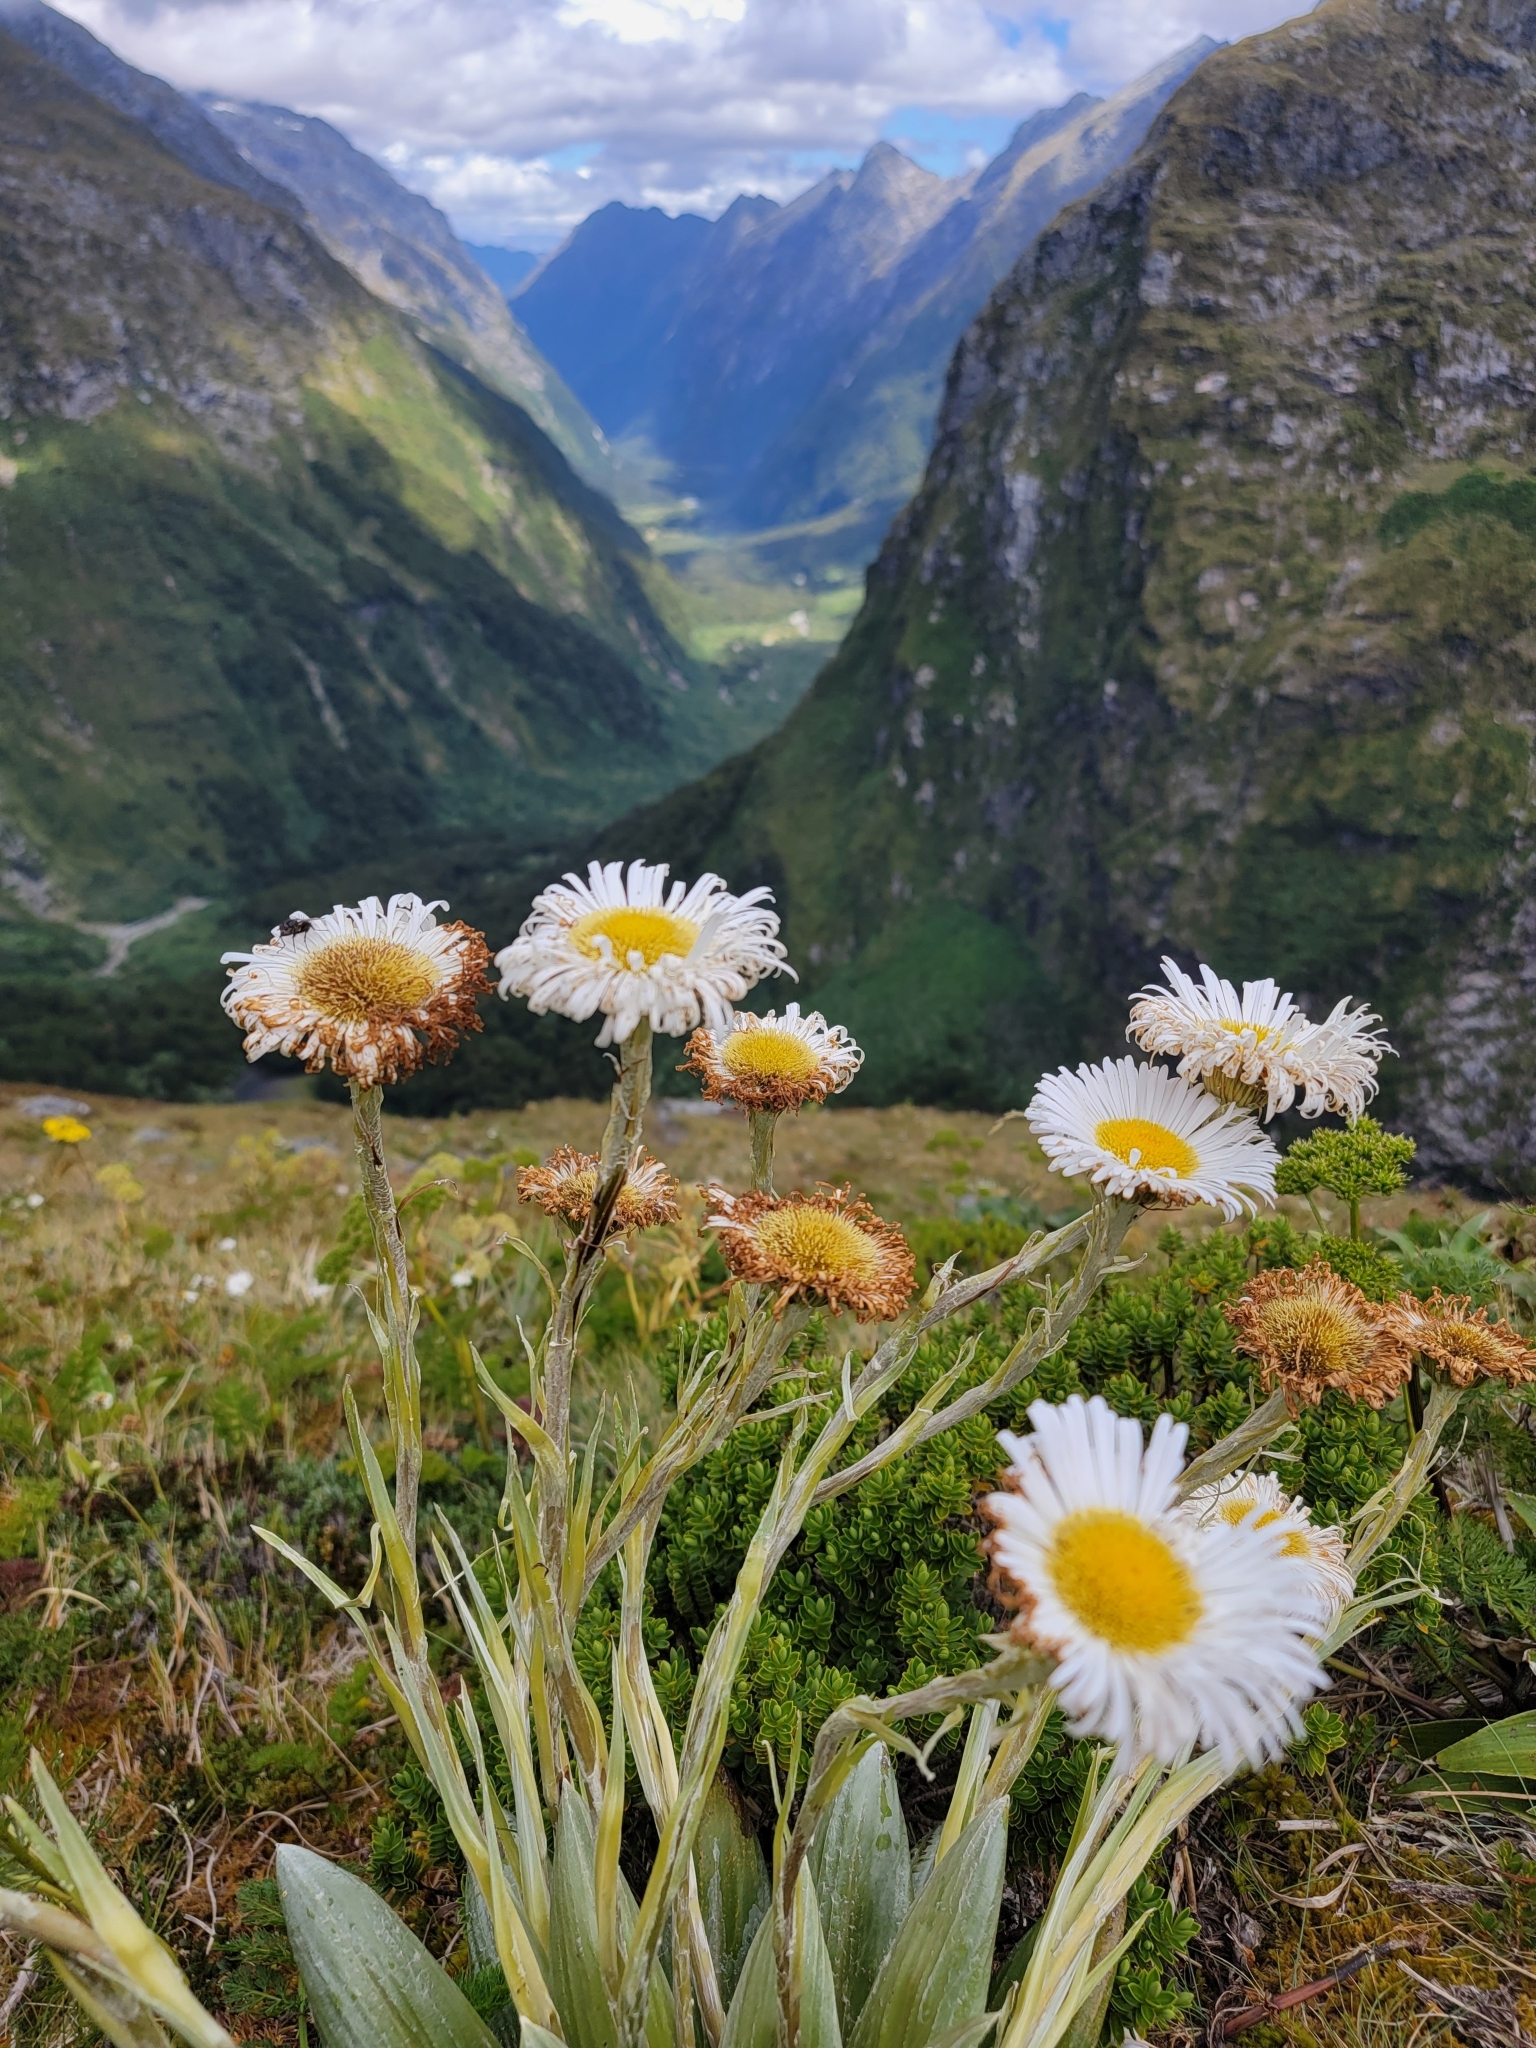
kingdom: Plantae
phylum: Tracheophyta
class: Magnoliopsida
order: Asterales
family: Asteraceae
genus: Celmisia
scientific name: Celmisia semicordata
